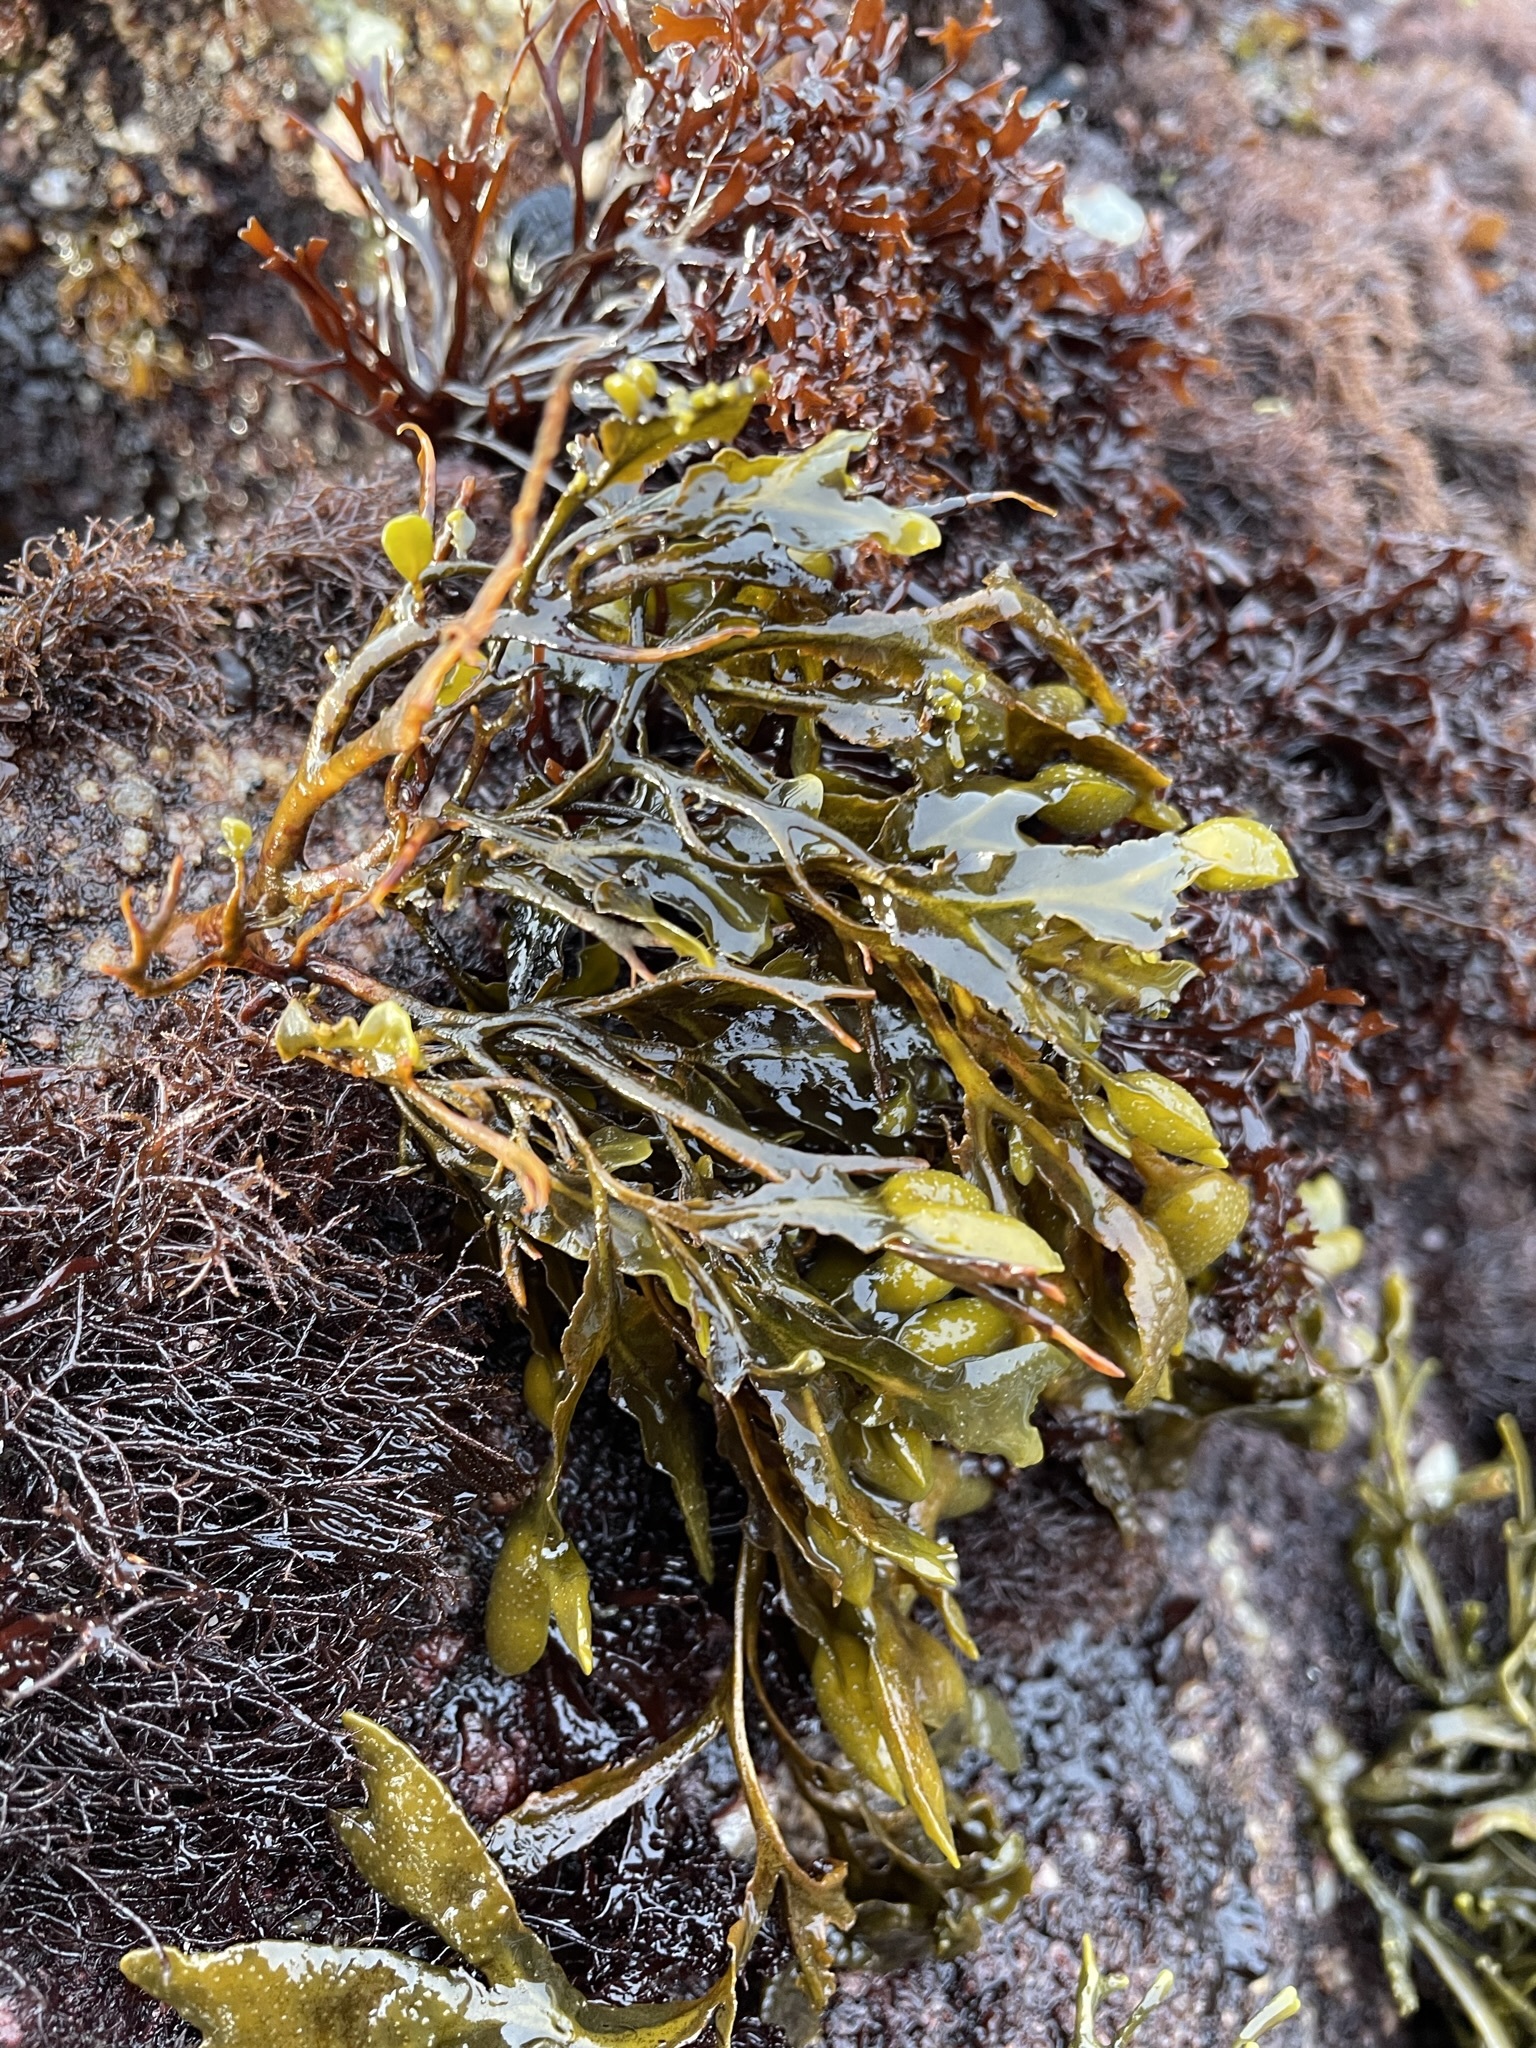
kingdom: Chromista
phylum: Ochrophyta
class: Phaeophyceae
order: Fucales
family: Fucaceae
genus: Fucus
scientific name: Fucus distichus
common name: Rockweed
